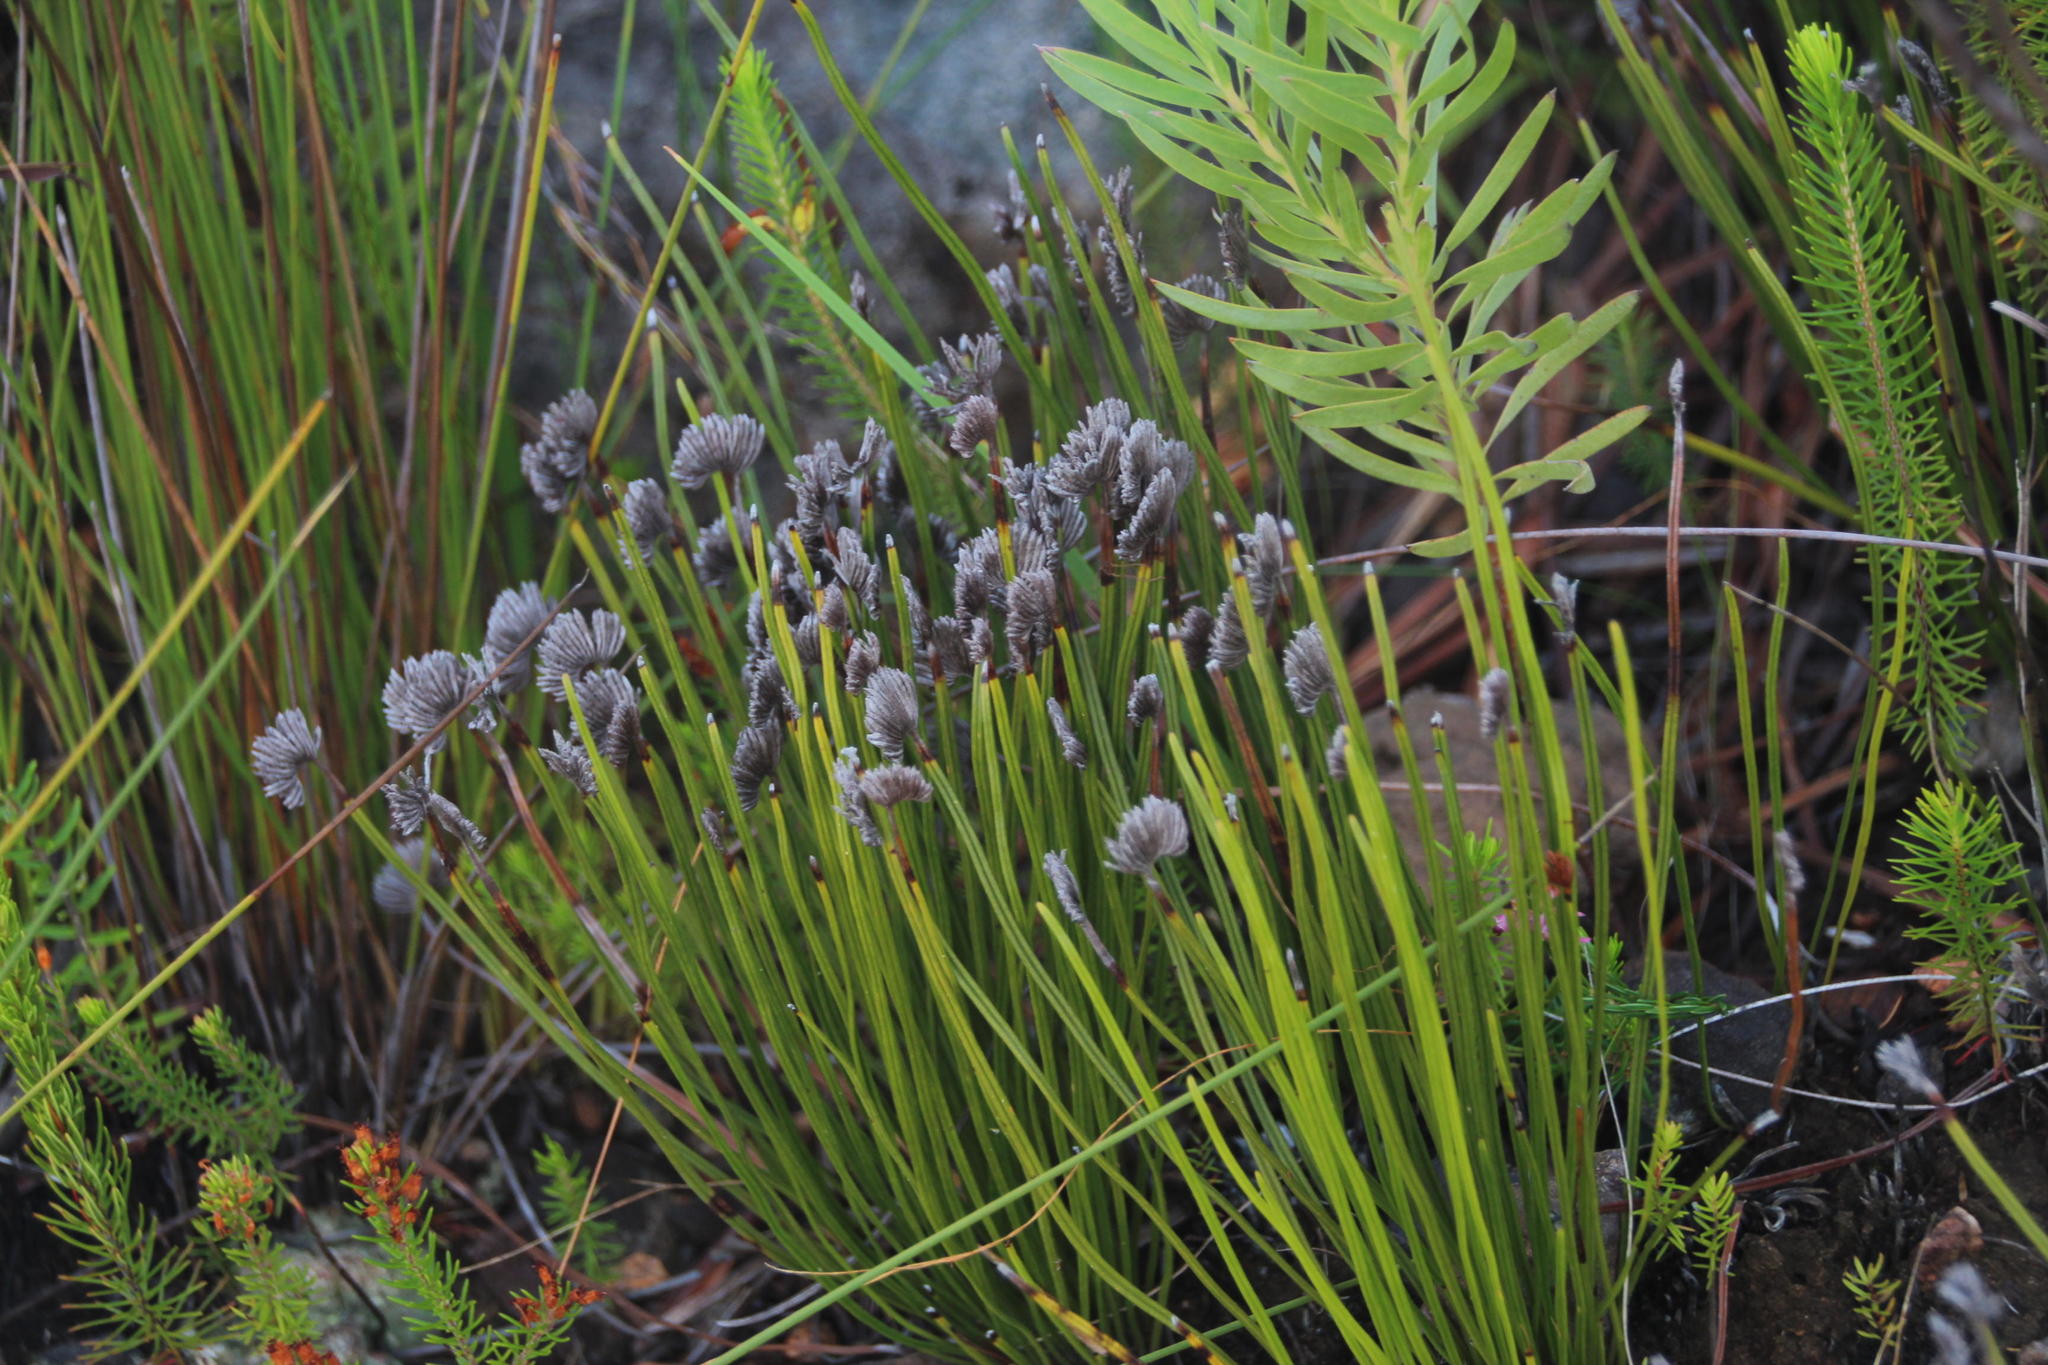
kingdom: Plantae
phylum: Tracheophyta
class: Polypodiopsida
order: Schizaeales
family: Schizaeaceae
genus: Schizaea
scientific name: Schizaea pectinata
